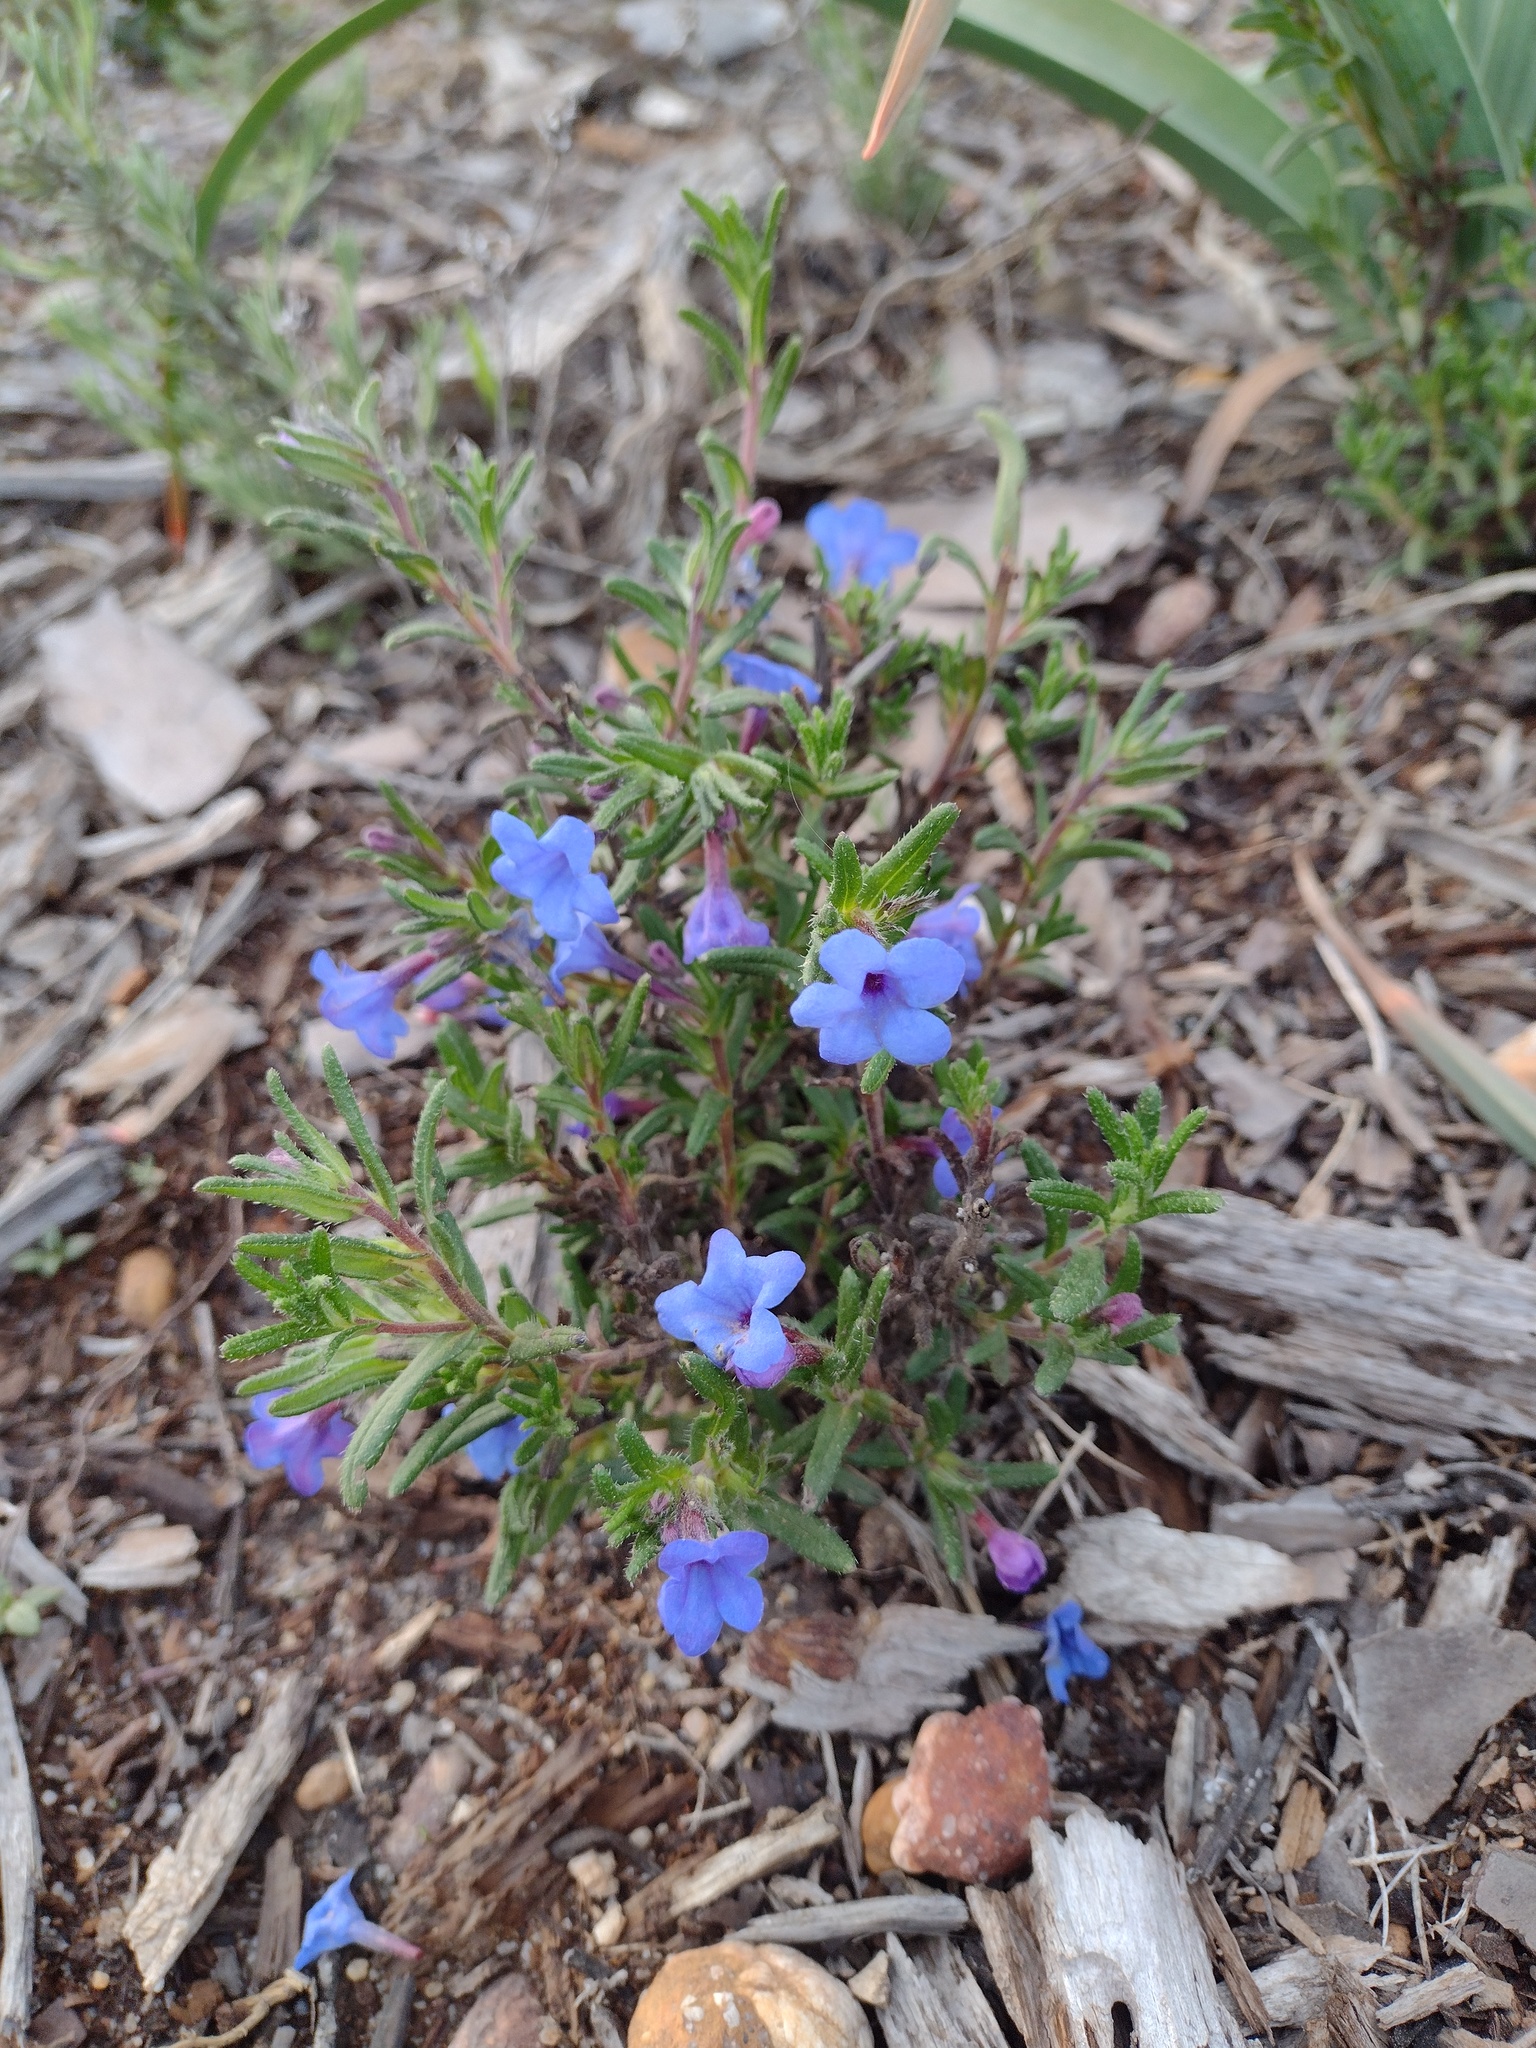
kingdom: Plantae
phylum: Tracheophyta
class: Magnoliopsida
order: Boraginales
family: Boraginaceae
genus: Glandora
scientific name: Glandora prostrata
